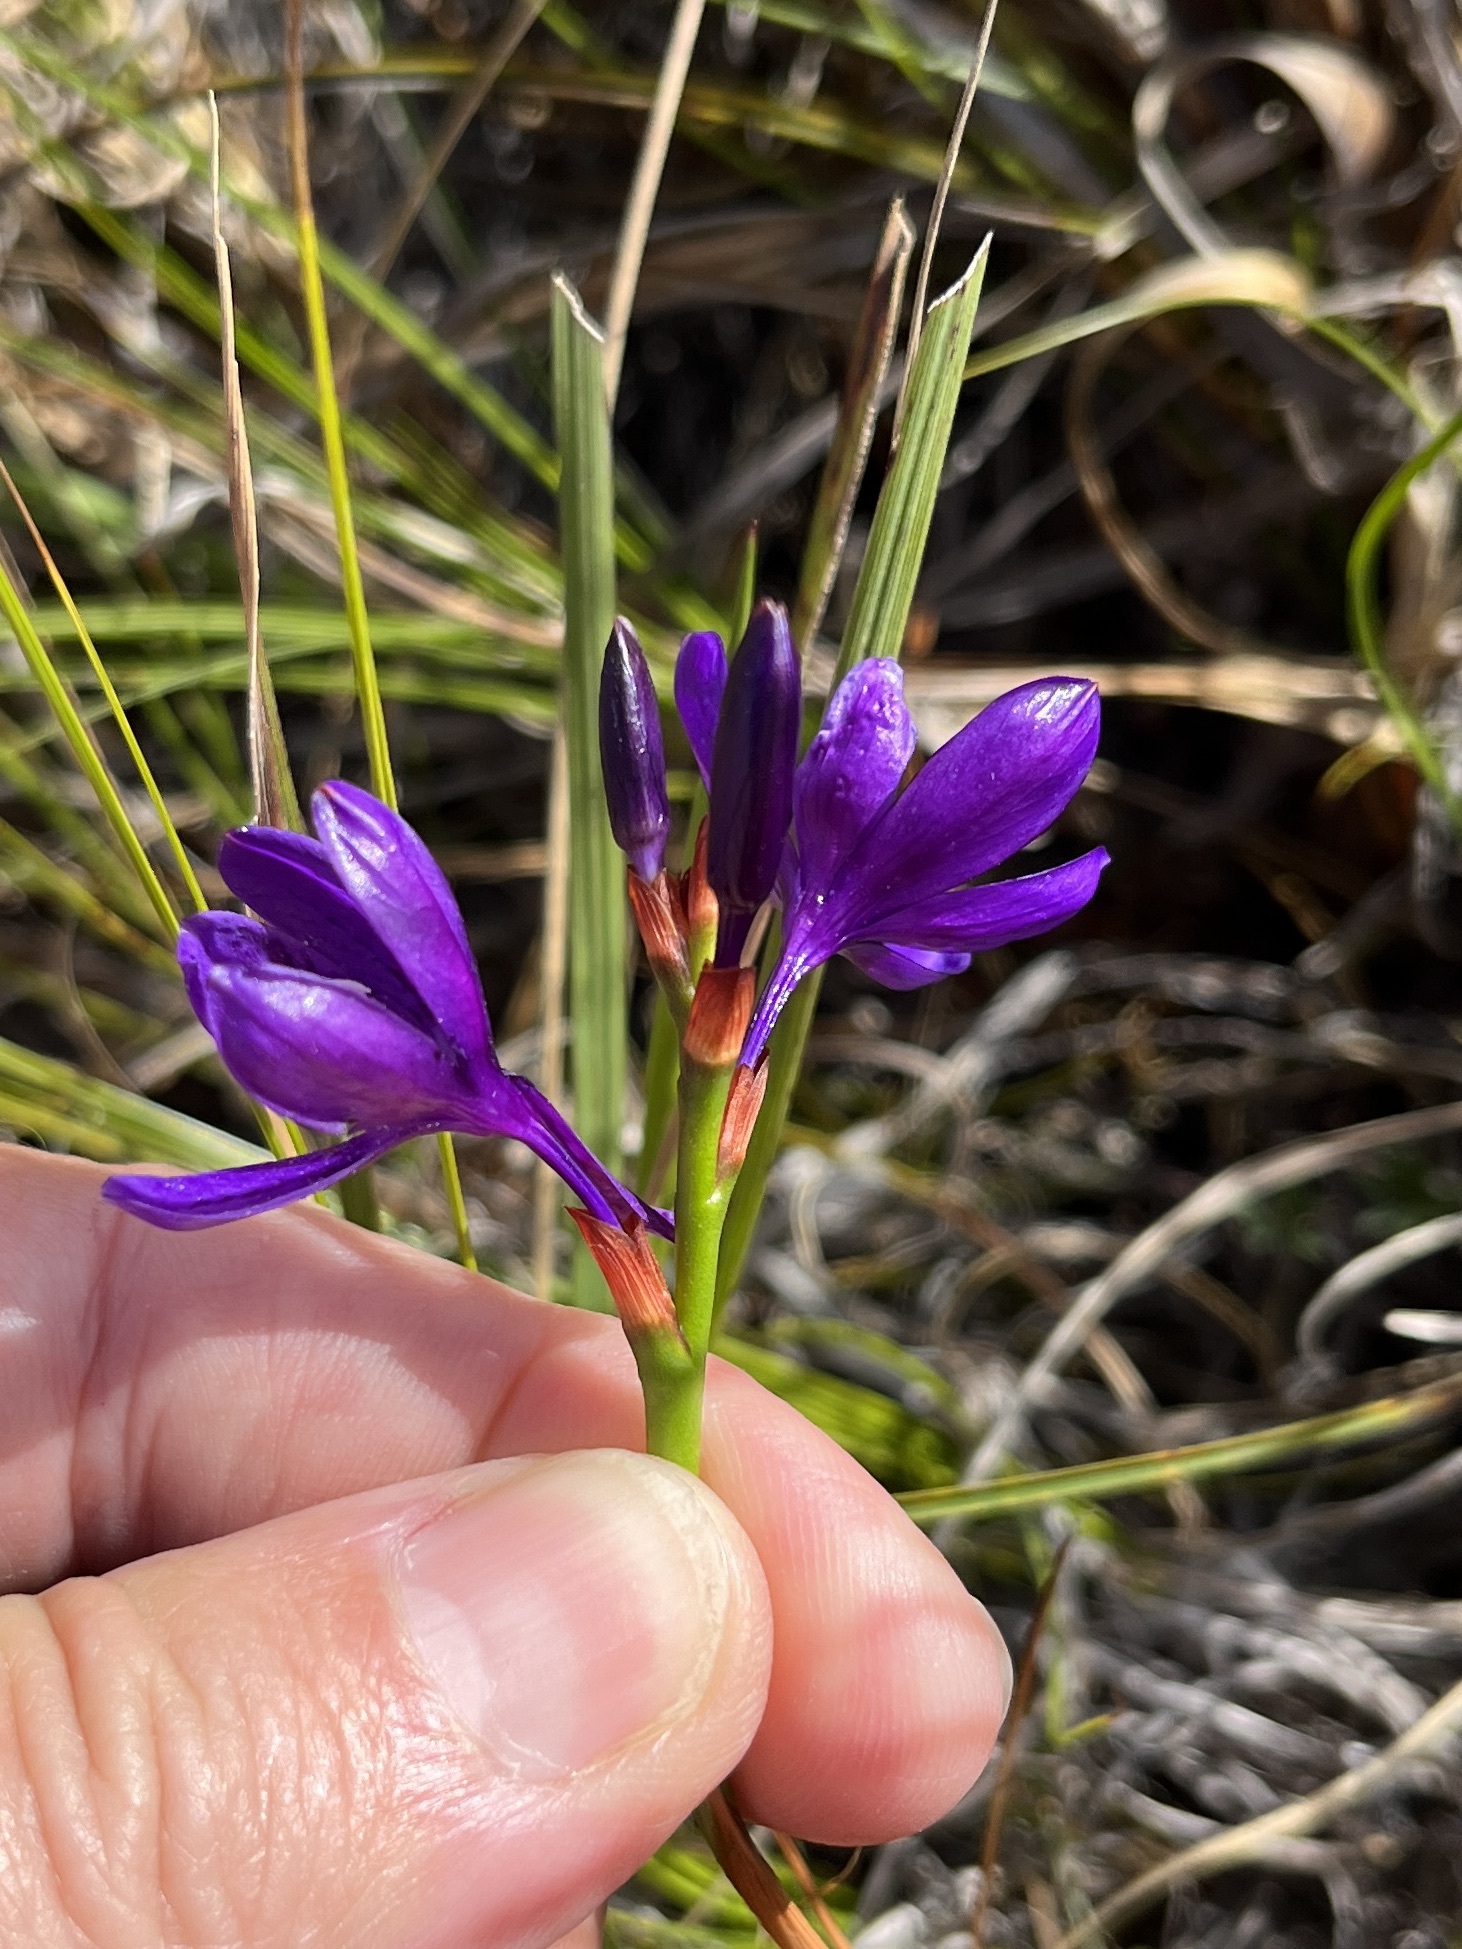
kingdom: Plantae
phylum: Tracheophyta
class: Liliopsida
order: Asparagales
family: Iridaceae
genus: Thereianthus
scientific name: Thereianthus bracteolatus
